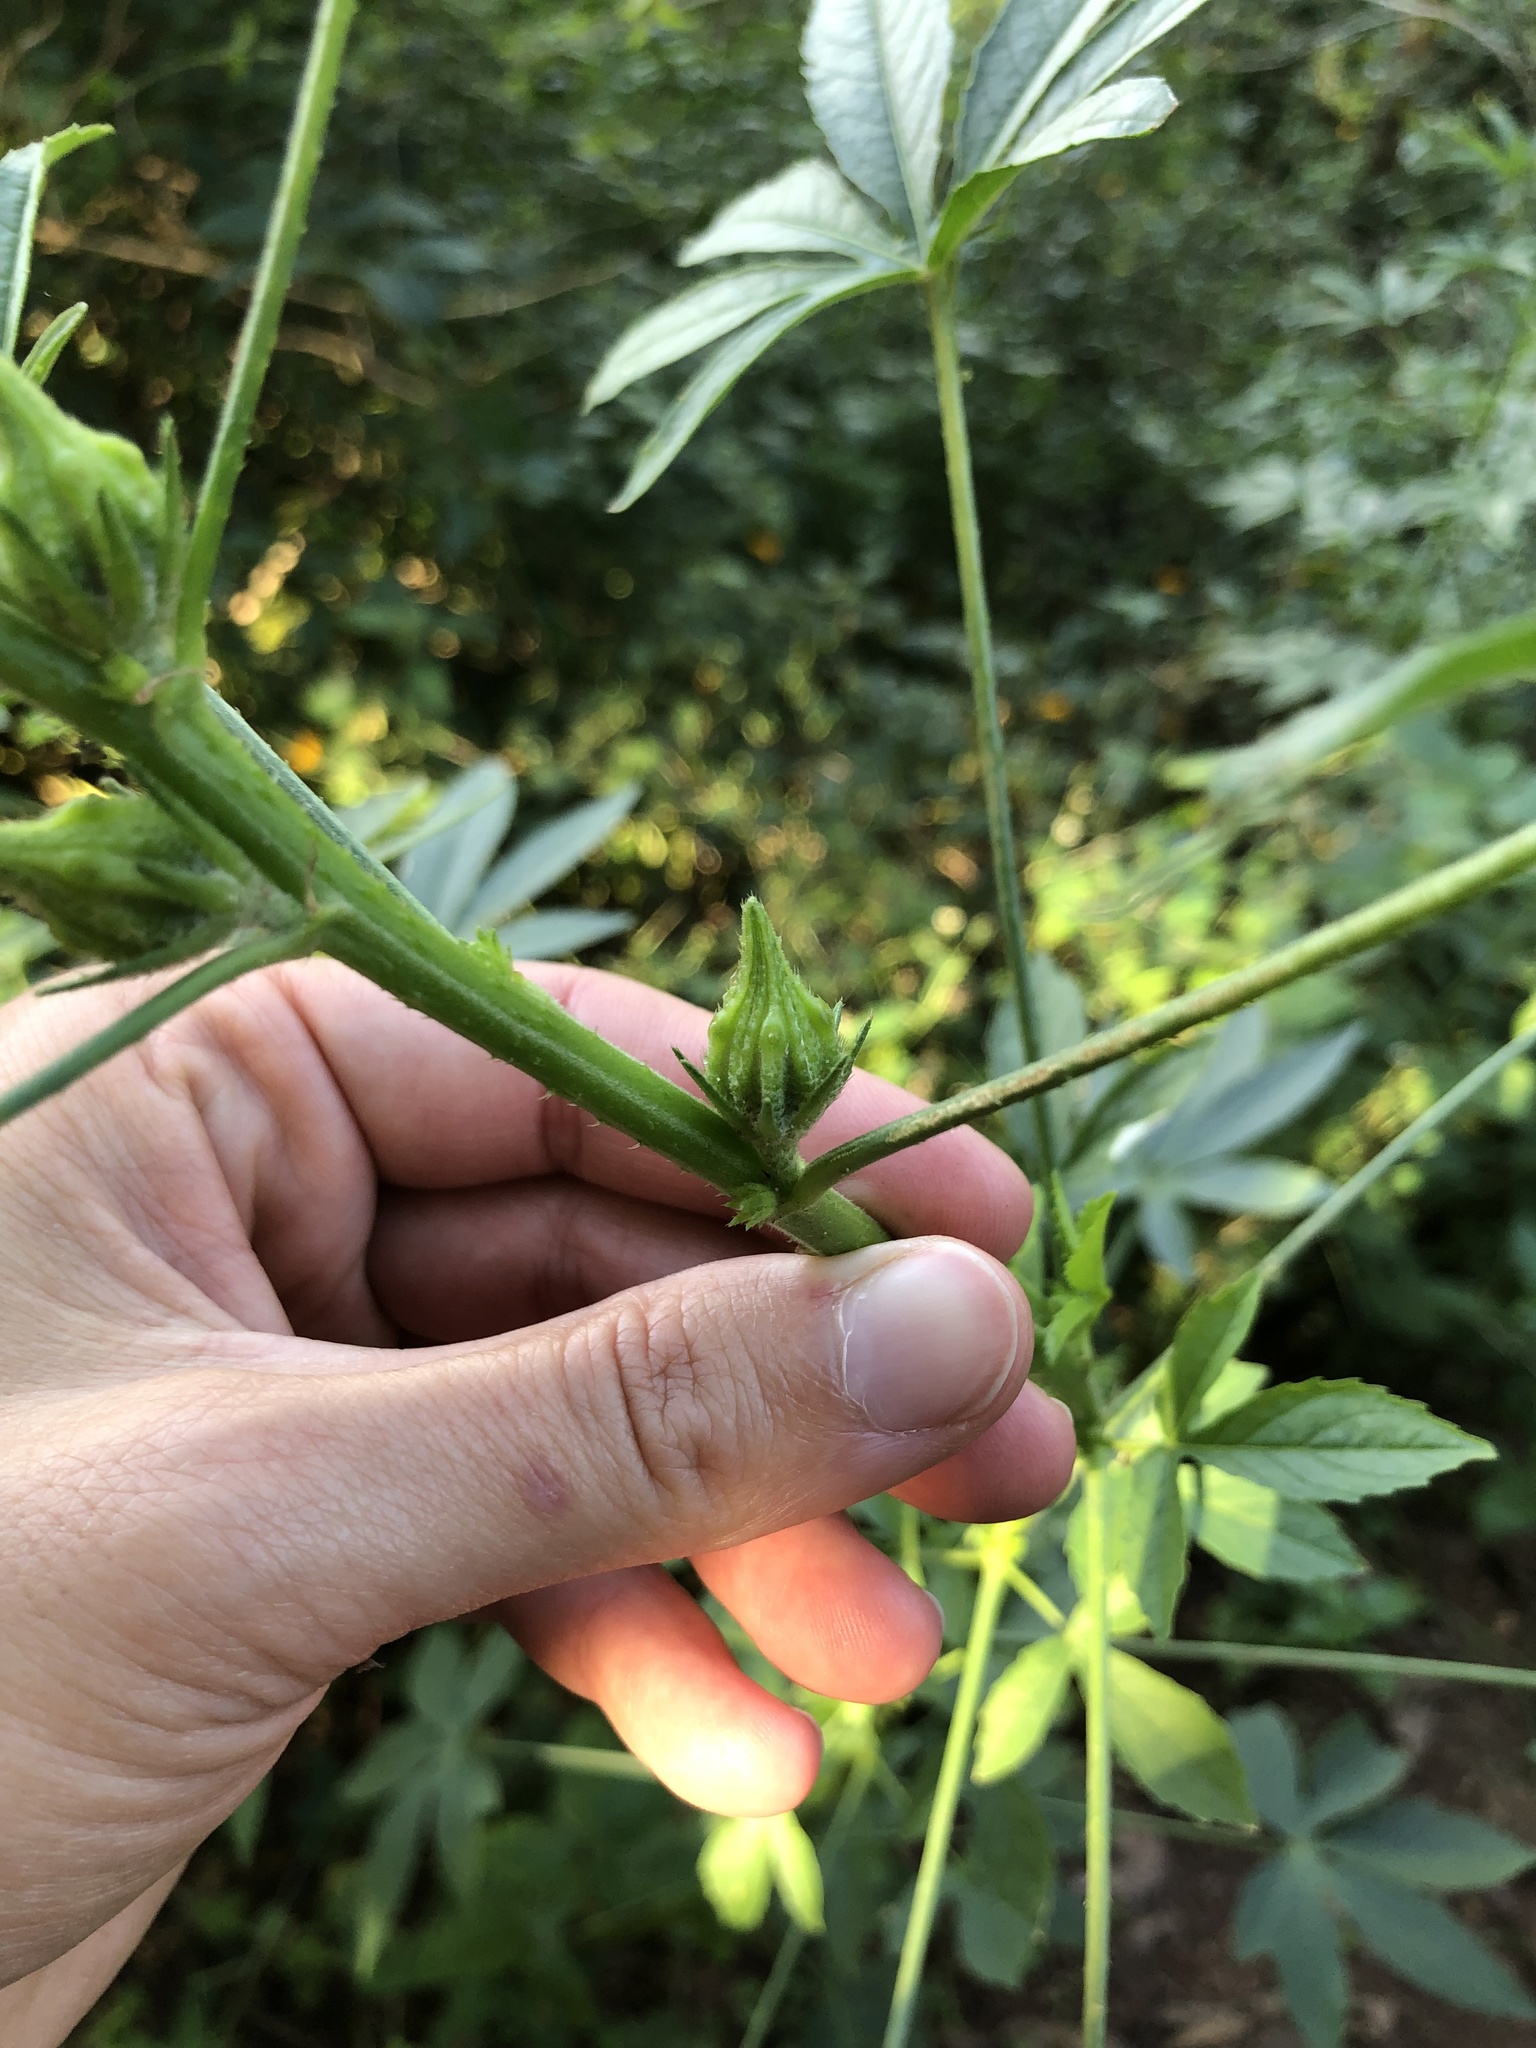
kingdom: Plantae
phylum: Tracheophyta
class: Magnoliopsida
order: Malvales
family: Malvaceae
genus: Hibiscus
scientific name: Hibiscus cannabinus
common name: Brown indianhemp
